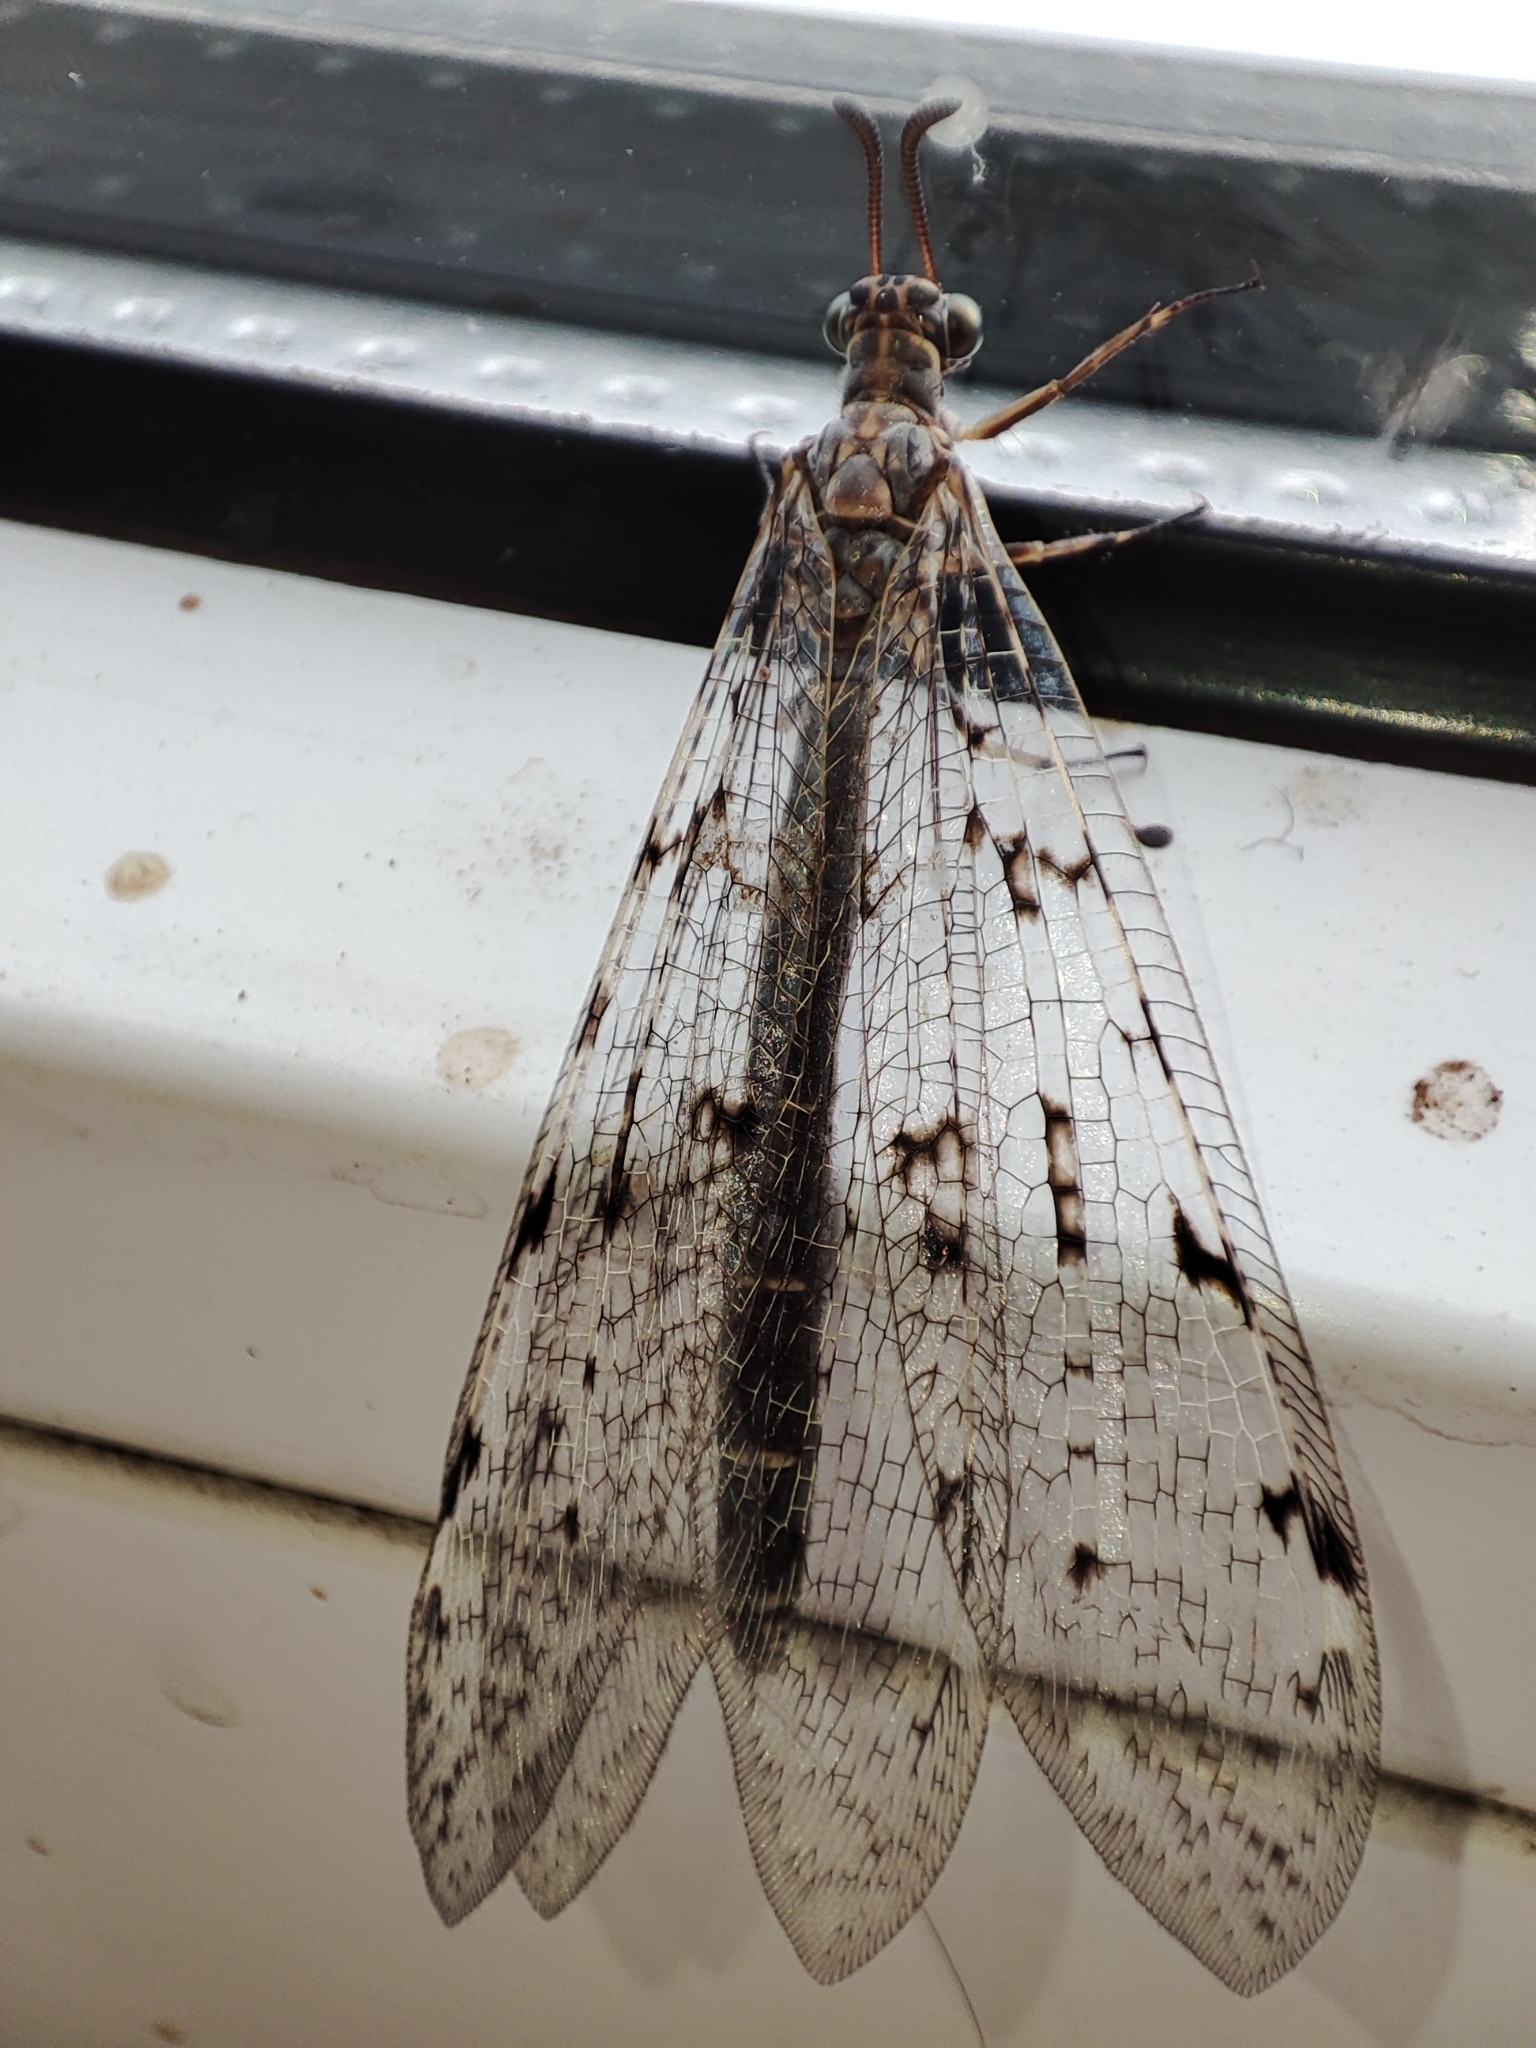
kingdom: Animalia
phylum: Arthropoda
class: Insecta
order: Neuroptera
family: Myrmeleontidae
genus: Euroleon
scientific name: Euroleon nostras
